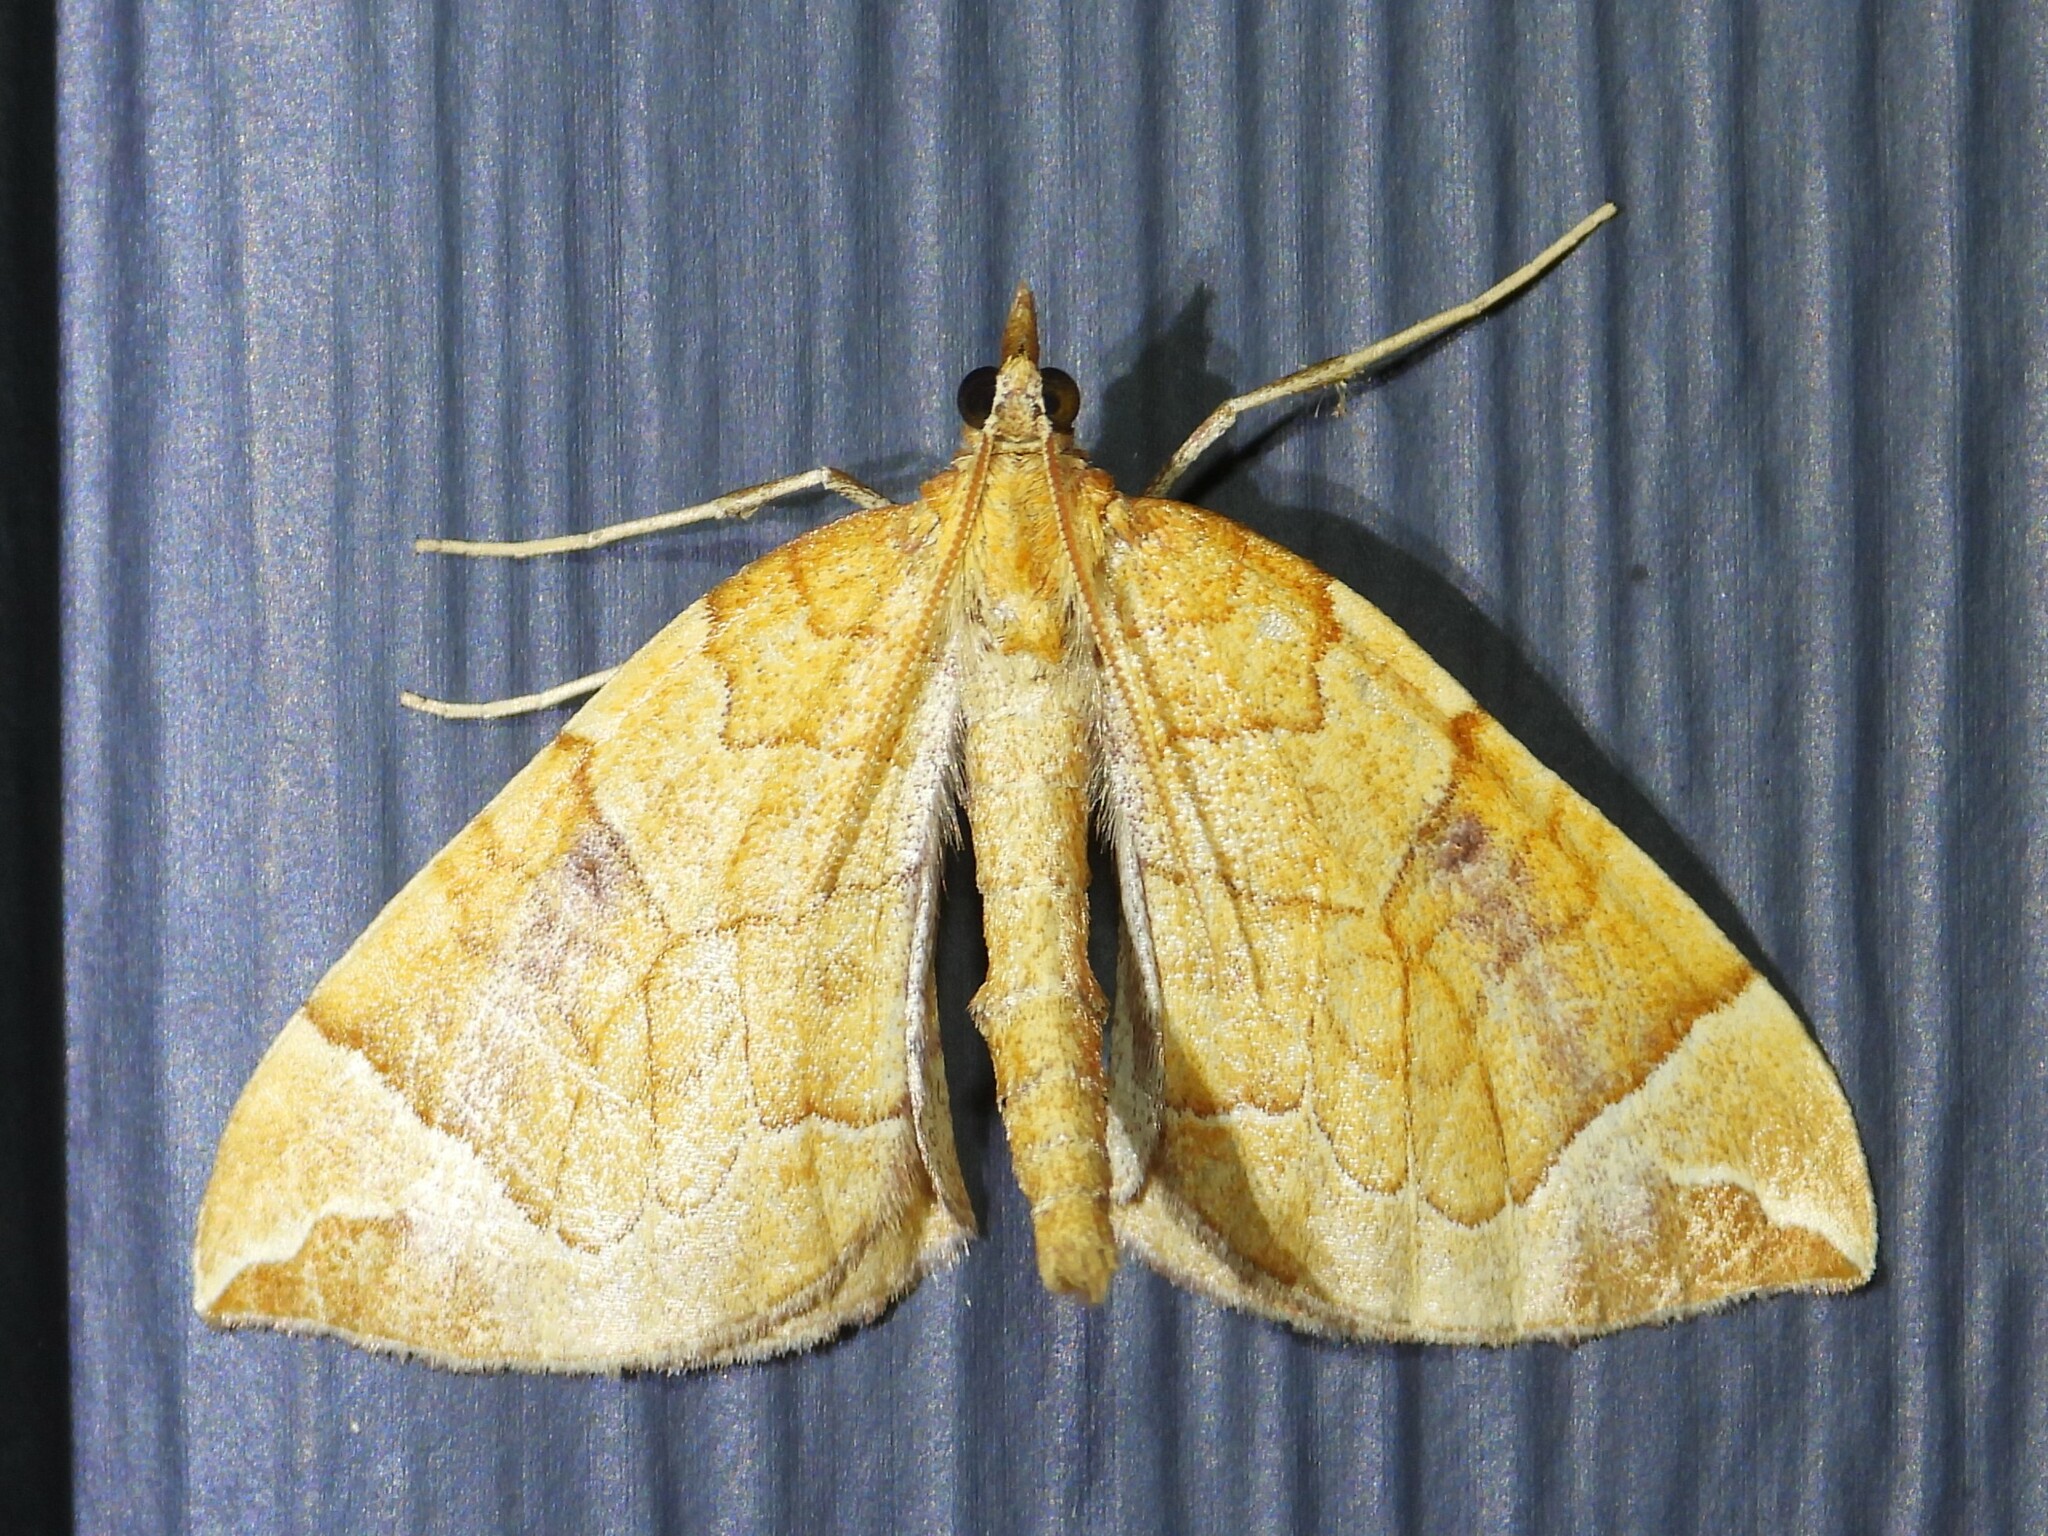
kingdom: Animalia
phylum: Arthropoda
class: Insecta
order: Lepidoptera
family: Geometridae
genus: Eulithis
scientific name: Eulithis testata
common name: Chevron
